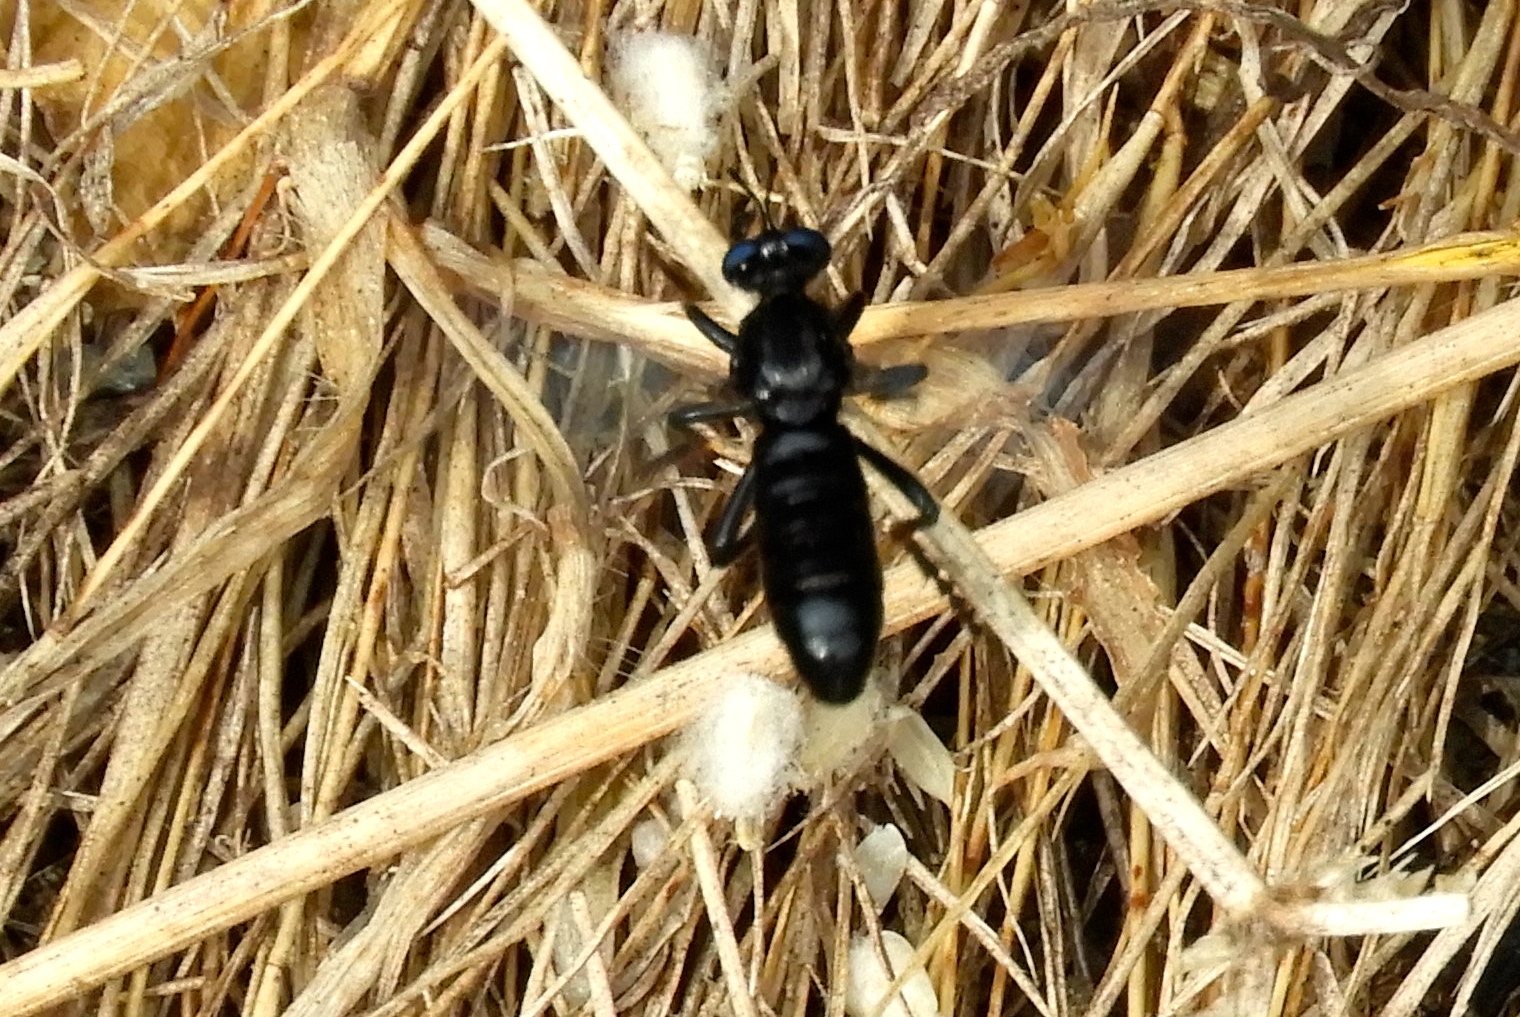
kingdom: Animalia
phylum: Arthropoda
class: Insecta
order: Diptera
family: Asilidae
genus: Saropogon
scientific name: Saropogon
